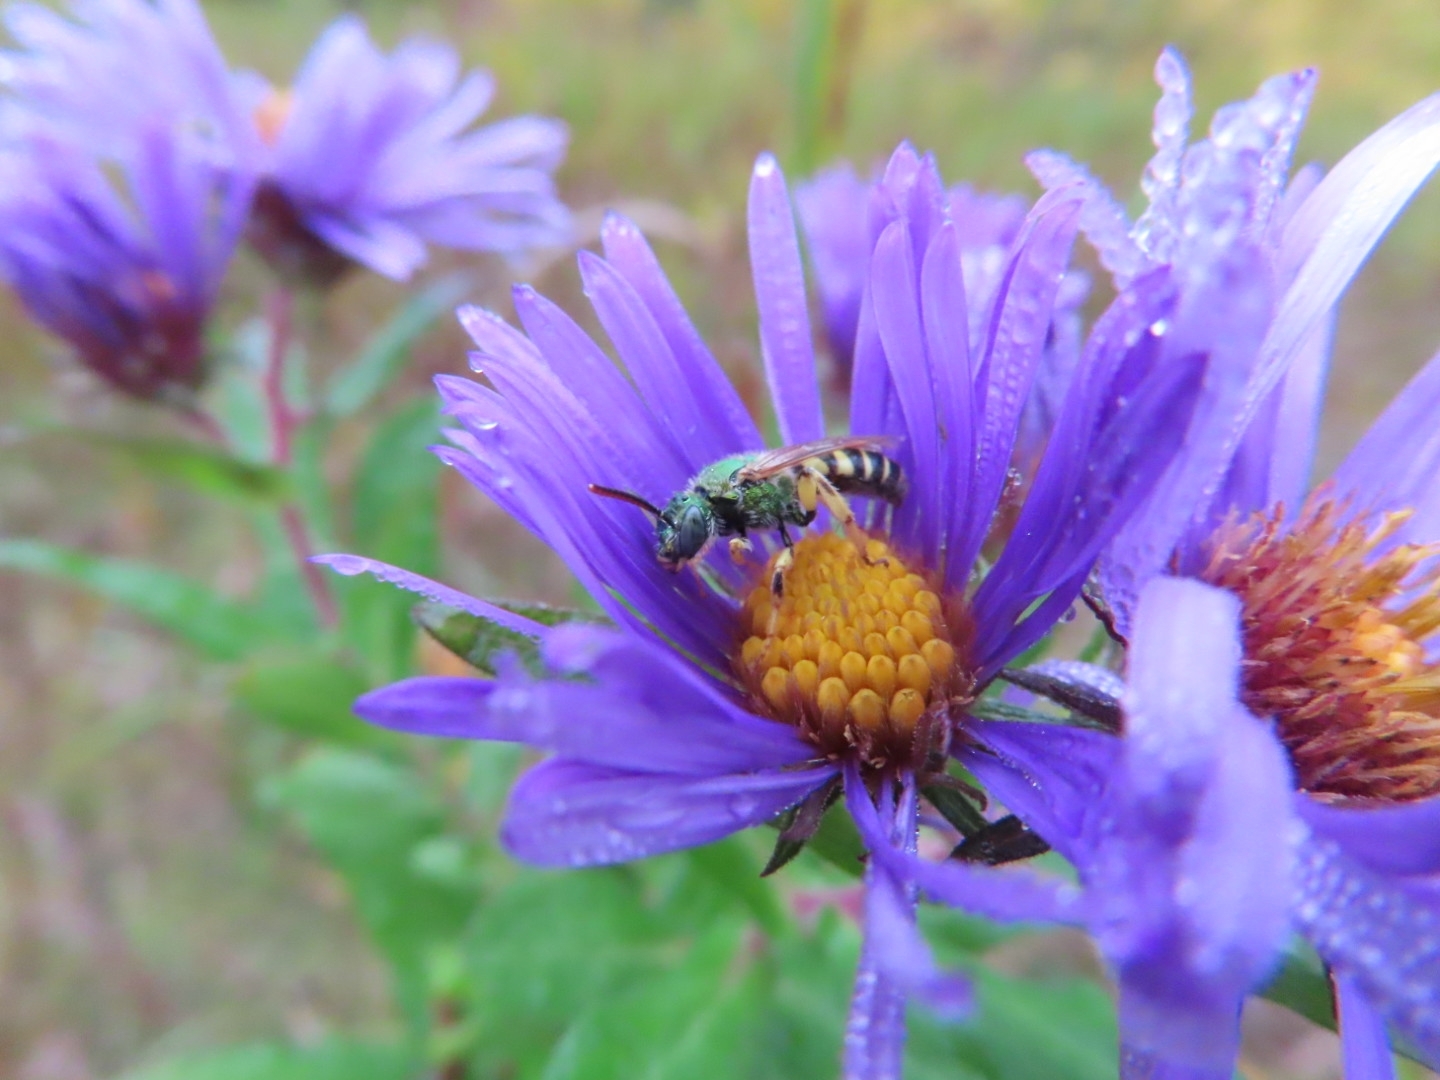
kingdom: Animalia
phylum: Arthropoda
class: Insecta
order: Hymenoptera
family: Halictidae
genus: Agapostemon
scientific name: Agapostemon virescens
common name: Bicolored striped sweat bee
